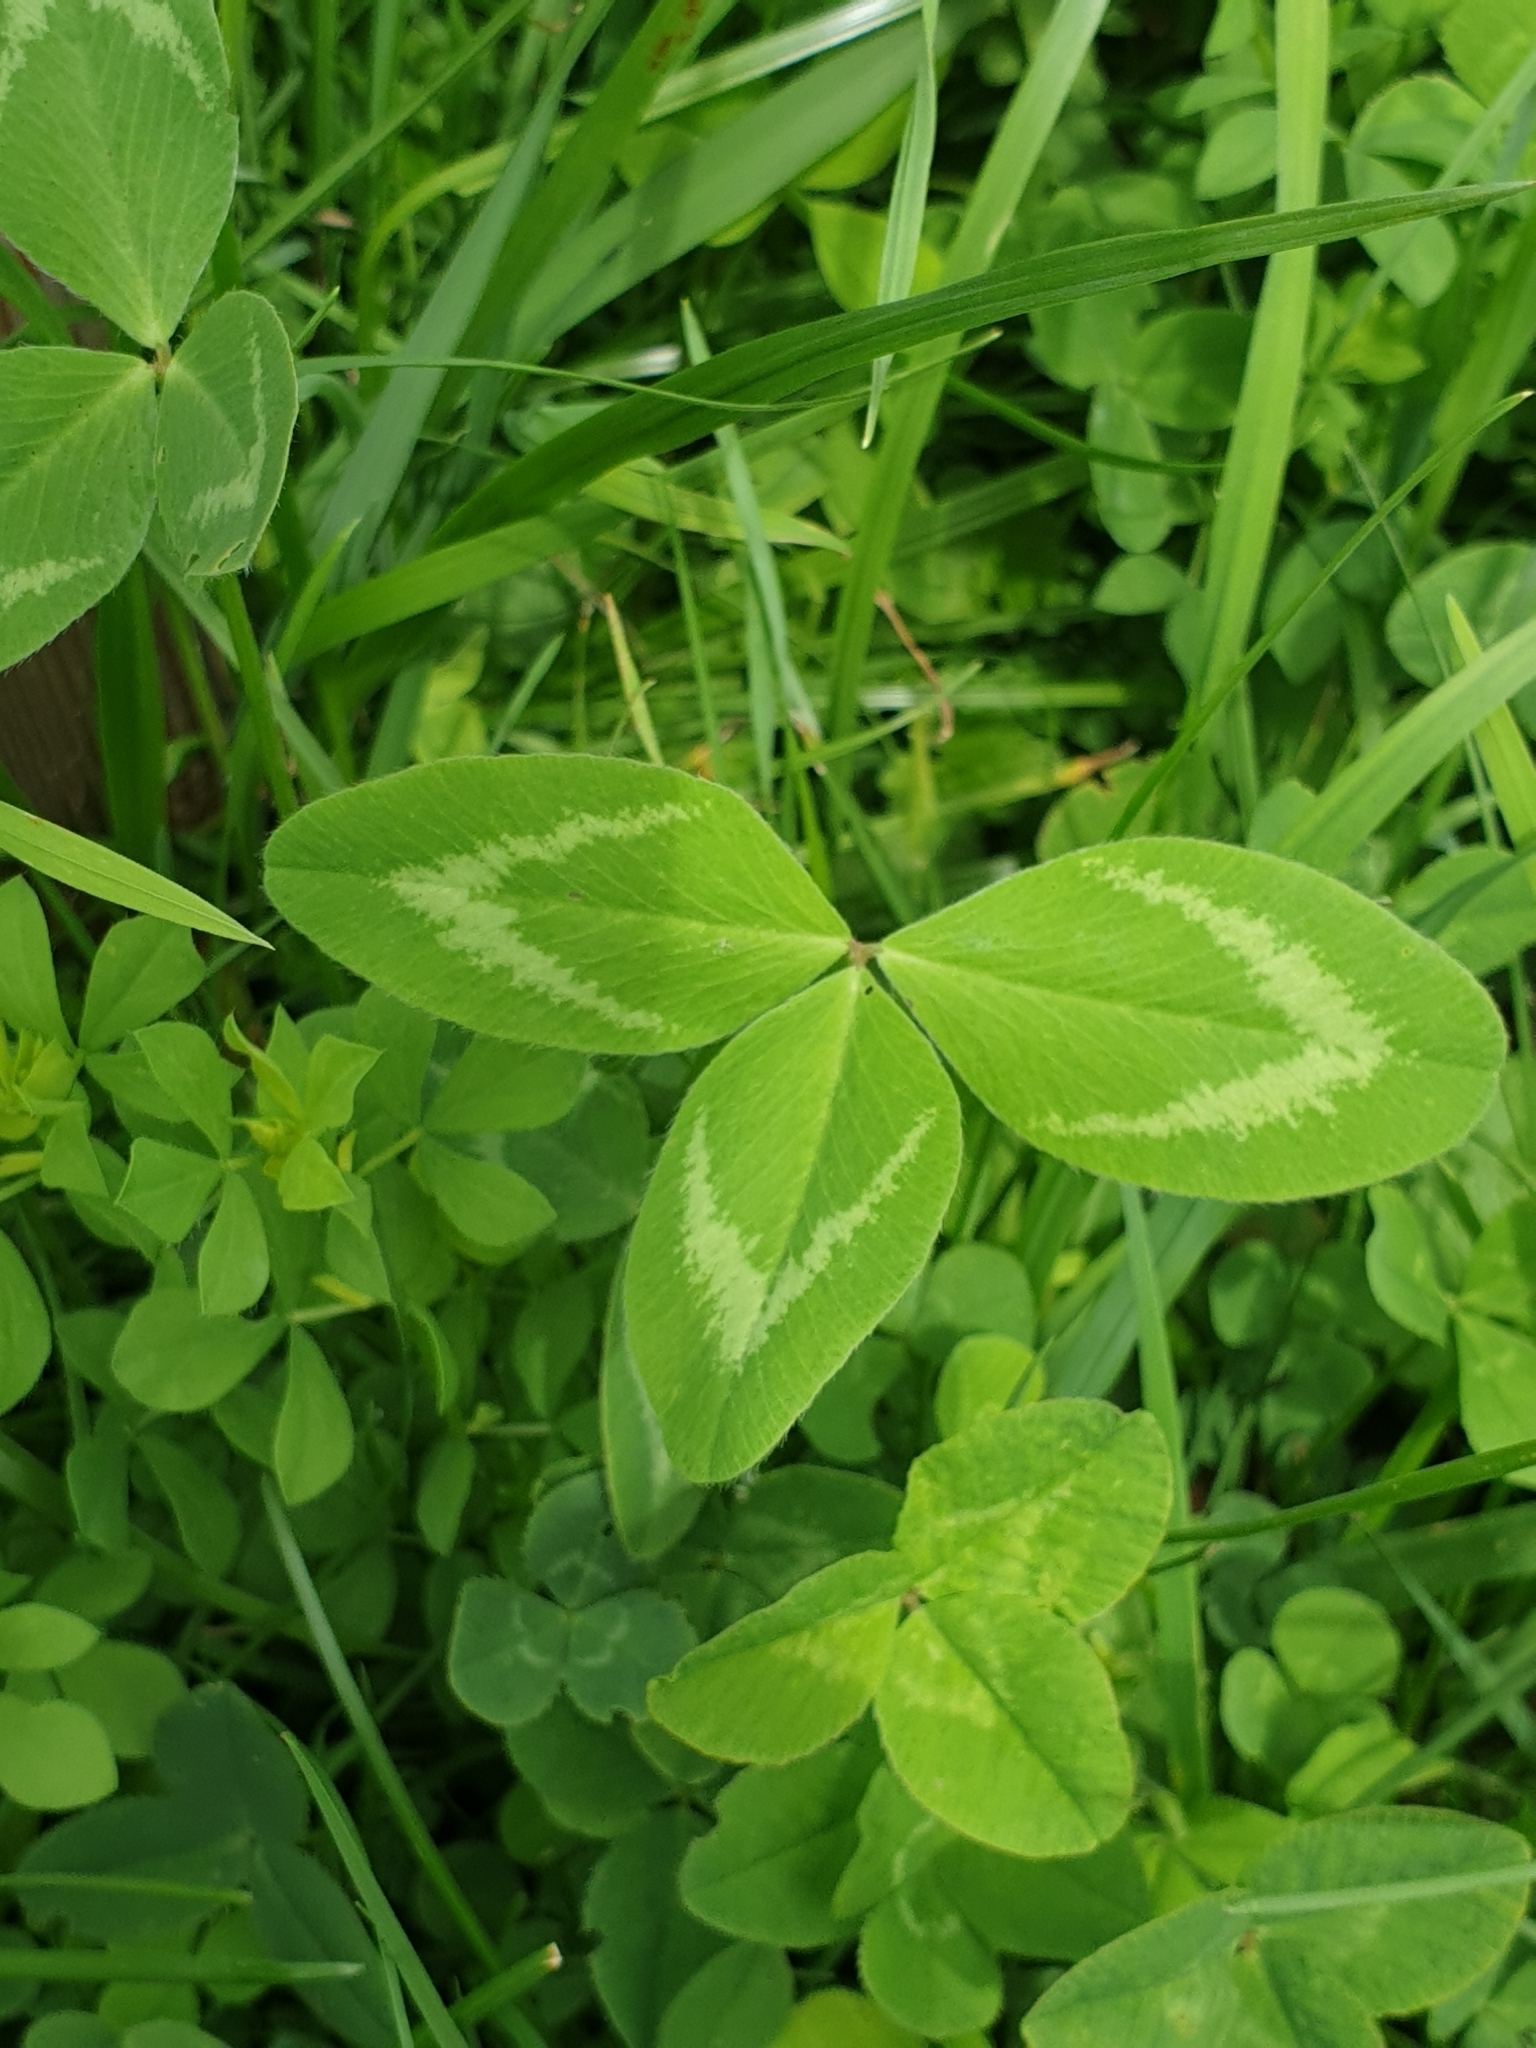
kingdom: Plantae
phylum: Tracheophyta
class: Magnoliopsida
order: Fabales
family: Fabaceae
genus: Trifolium
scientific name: Trifolium pratense
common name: Red clover
